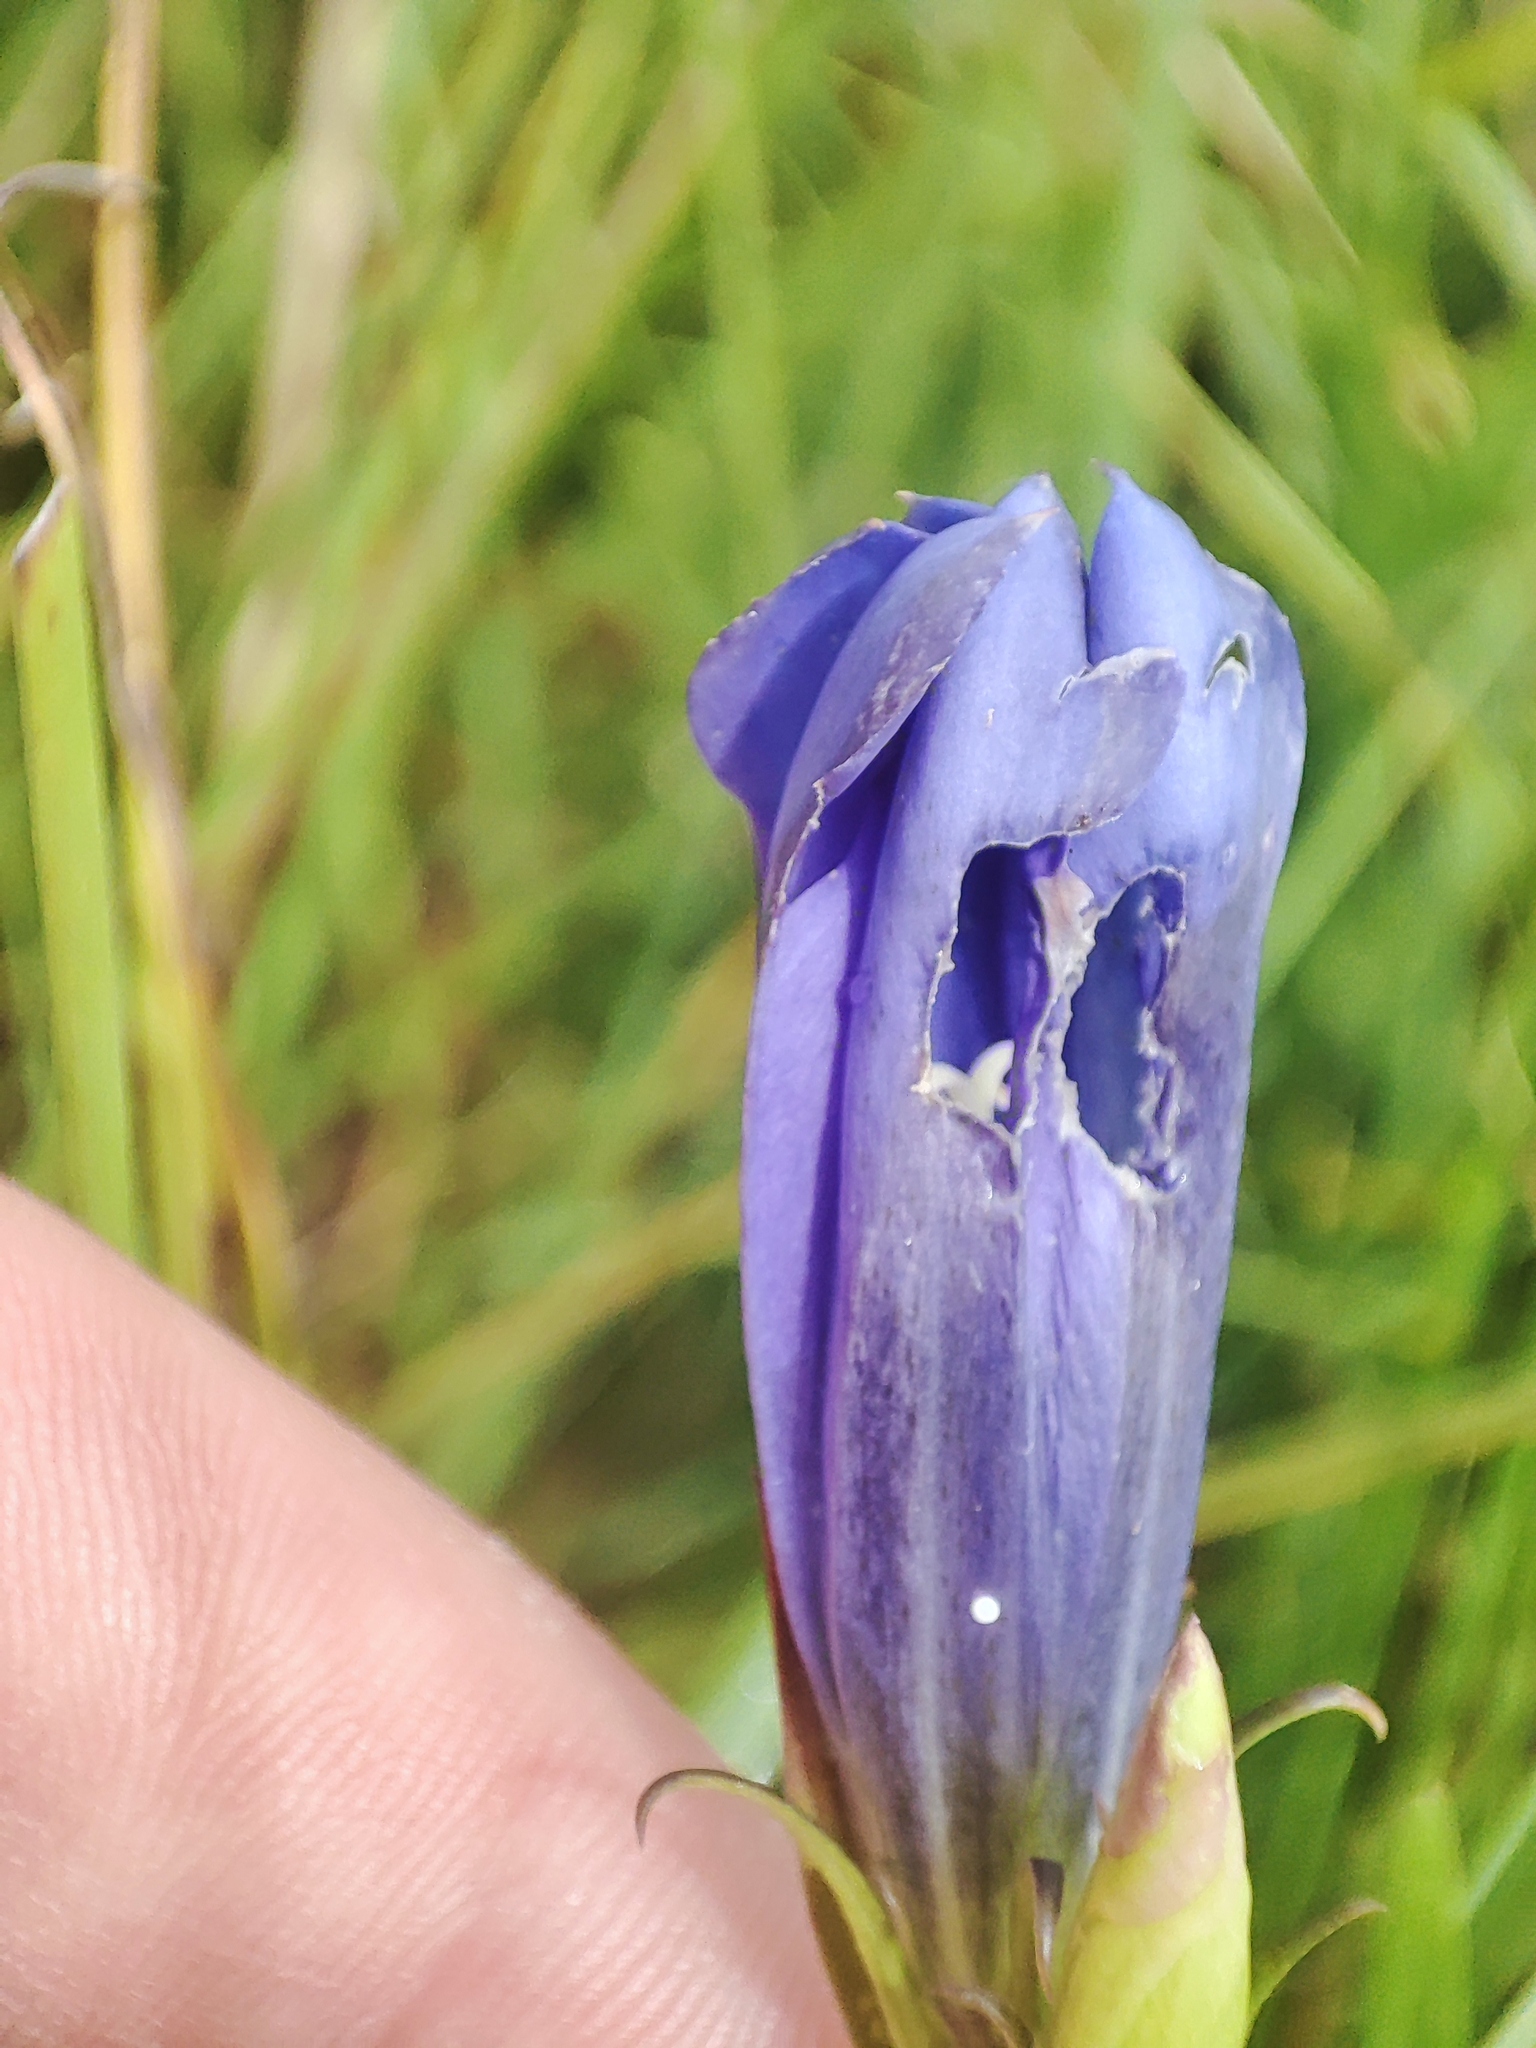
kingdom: Animalia
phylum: Arthropoda
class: Insecta
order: Lepidoptera
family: Lycaenidae
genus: Maculinea
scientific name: Maculinea alcon
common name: Alcon blue
